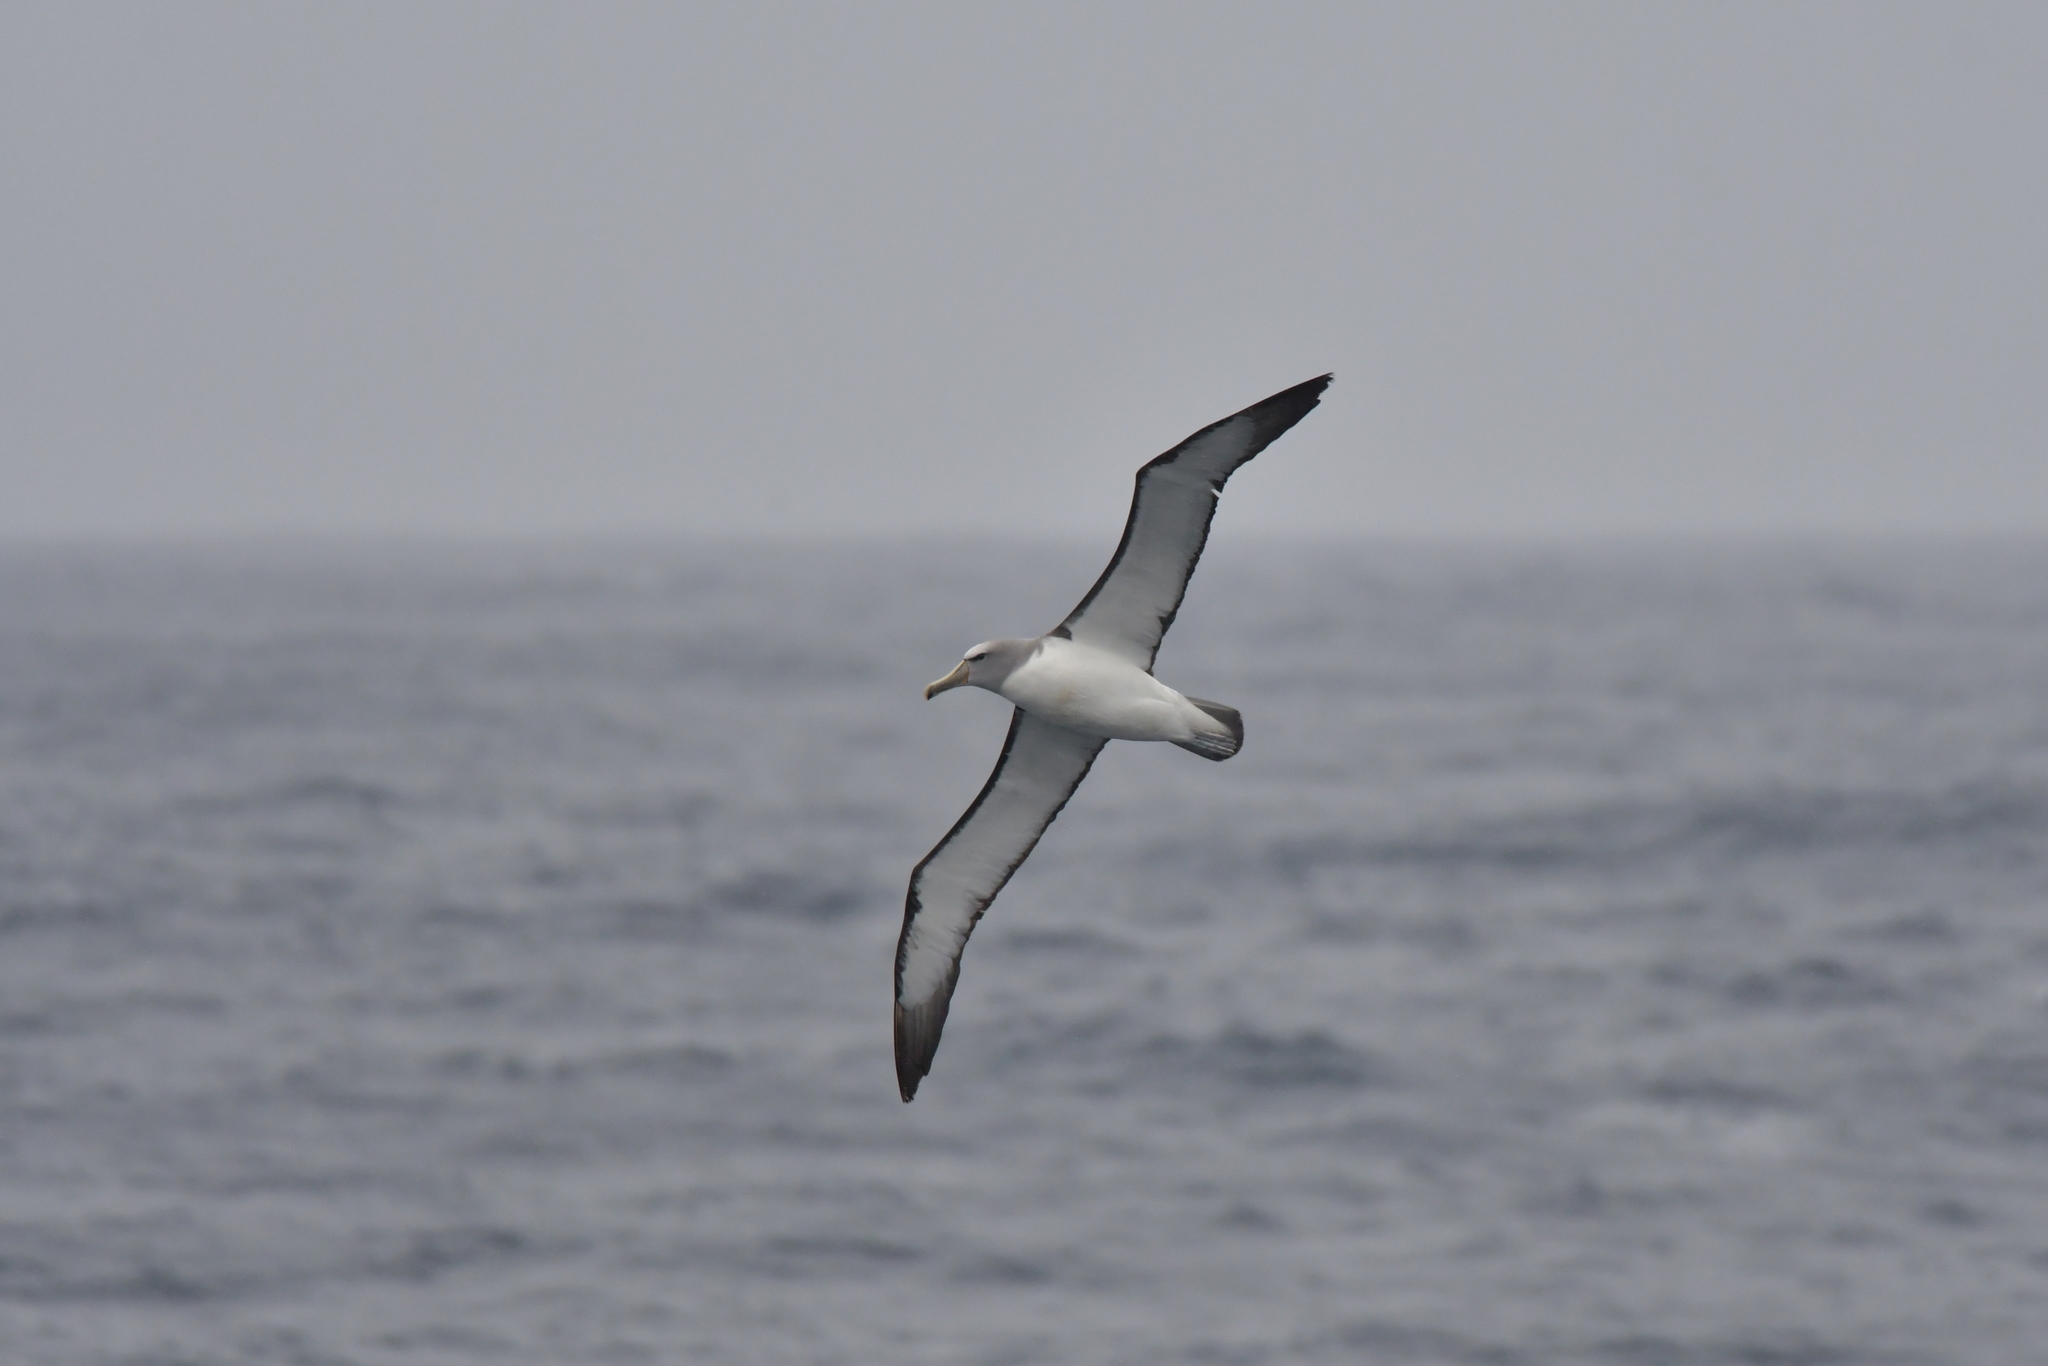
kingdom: Animalia
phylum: Chordata
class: Aves
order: Procellariiformes
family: Diomedeidae
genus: Thalassarche
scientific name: Thalassarche salvini
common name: Salvin's albatross
